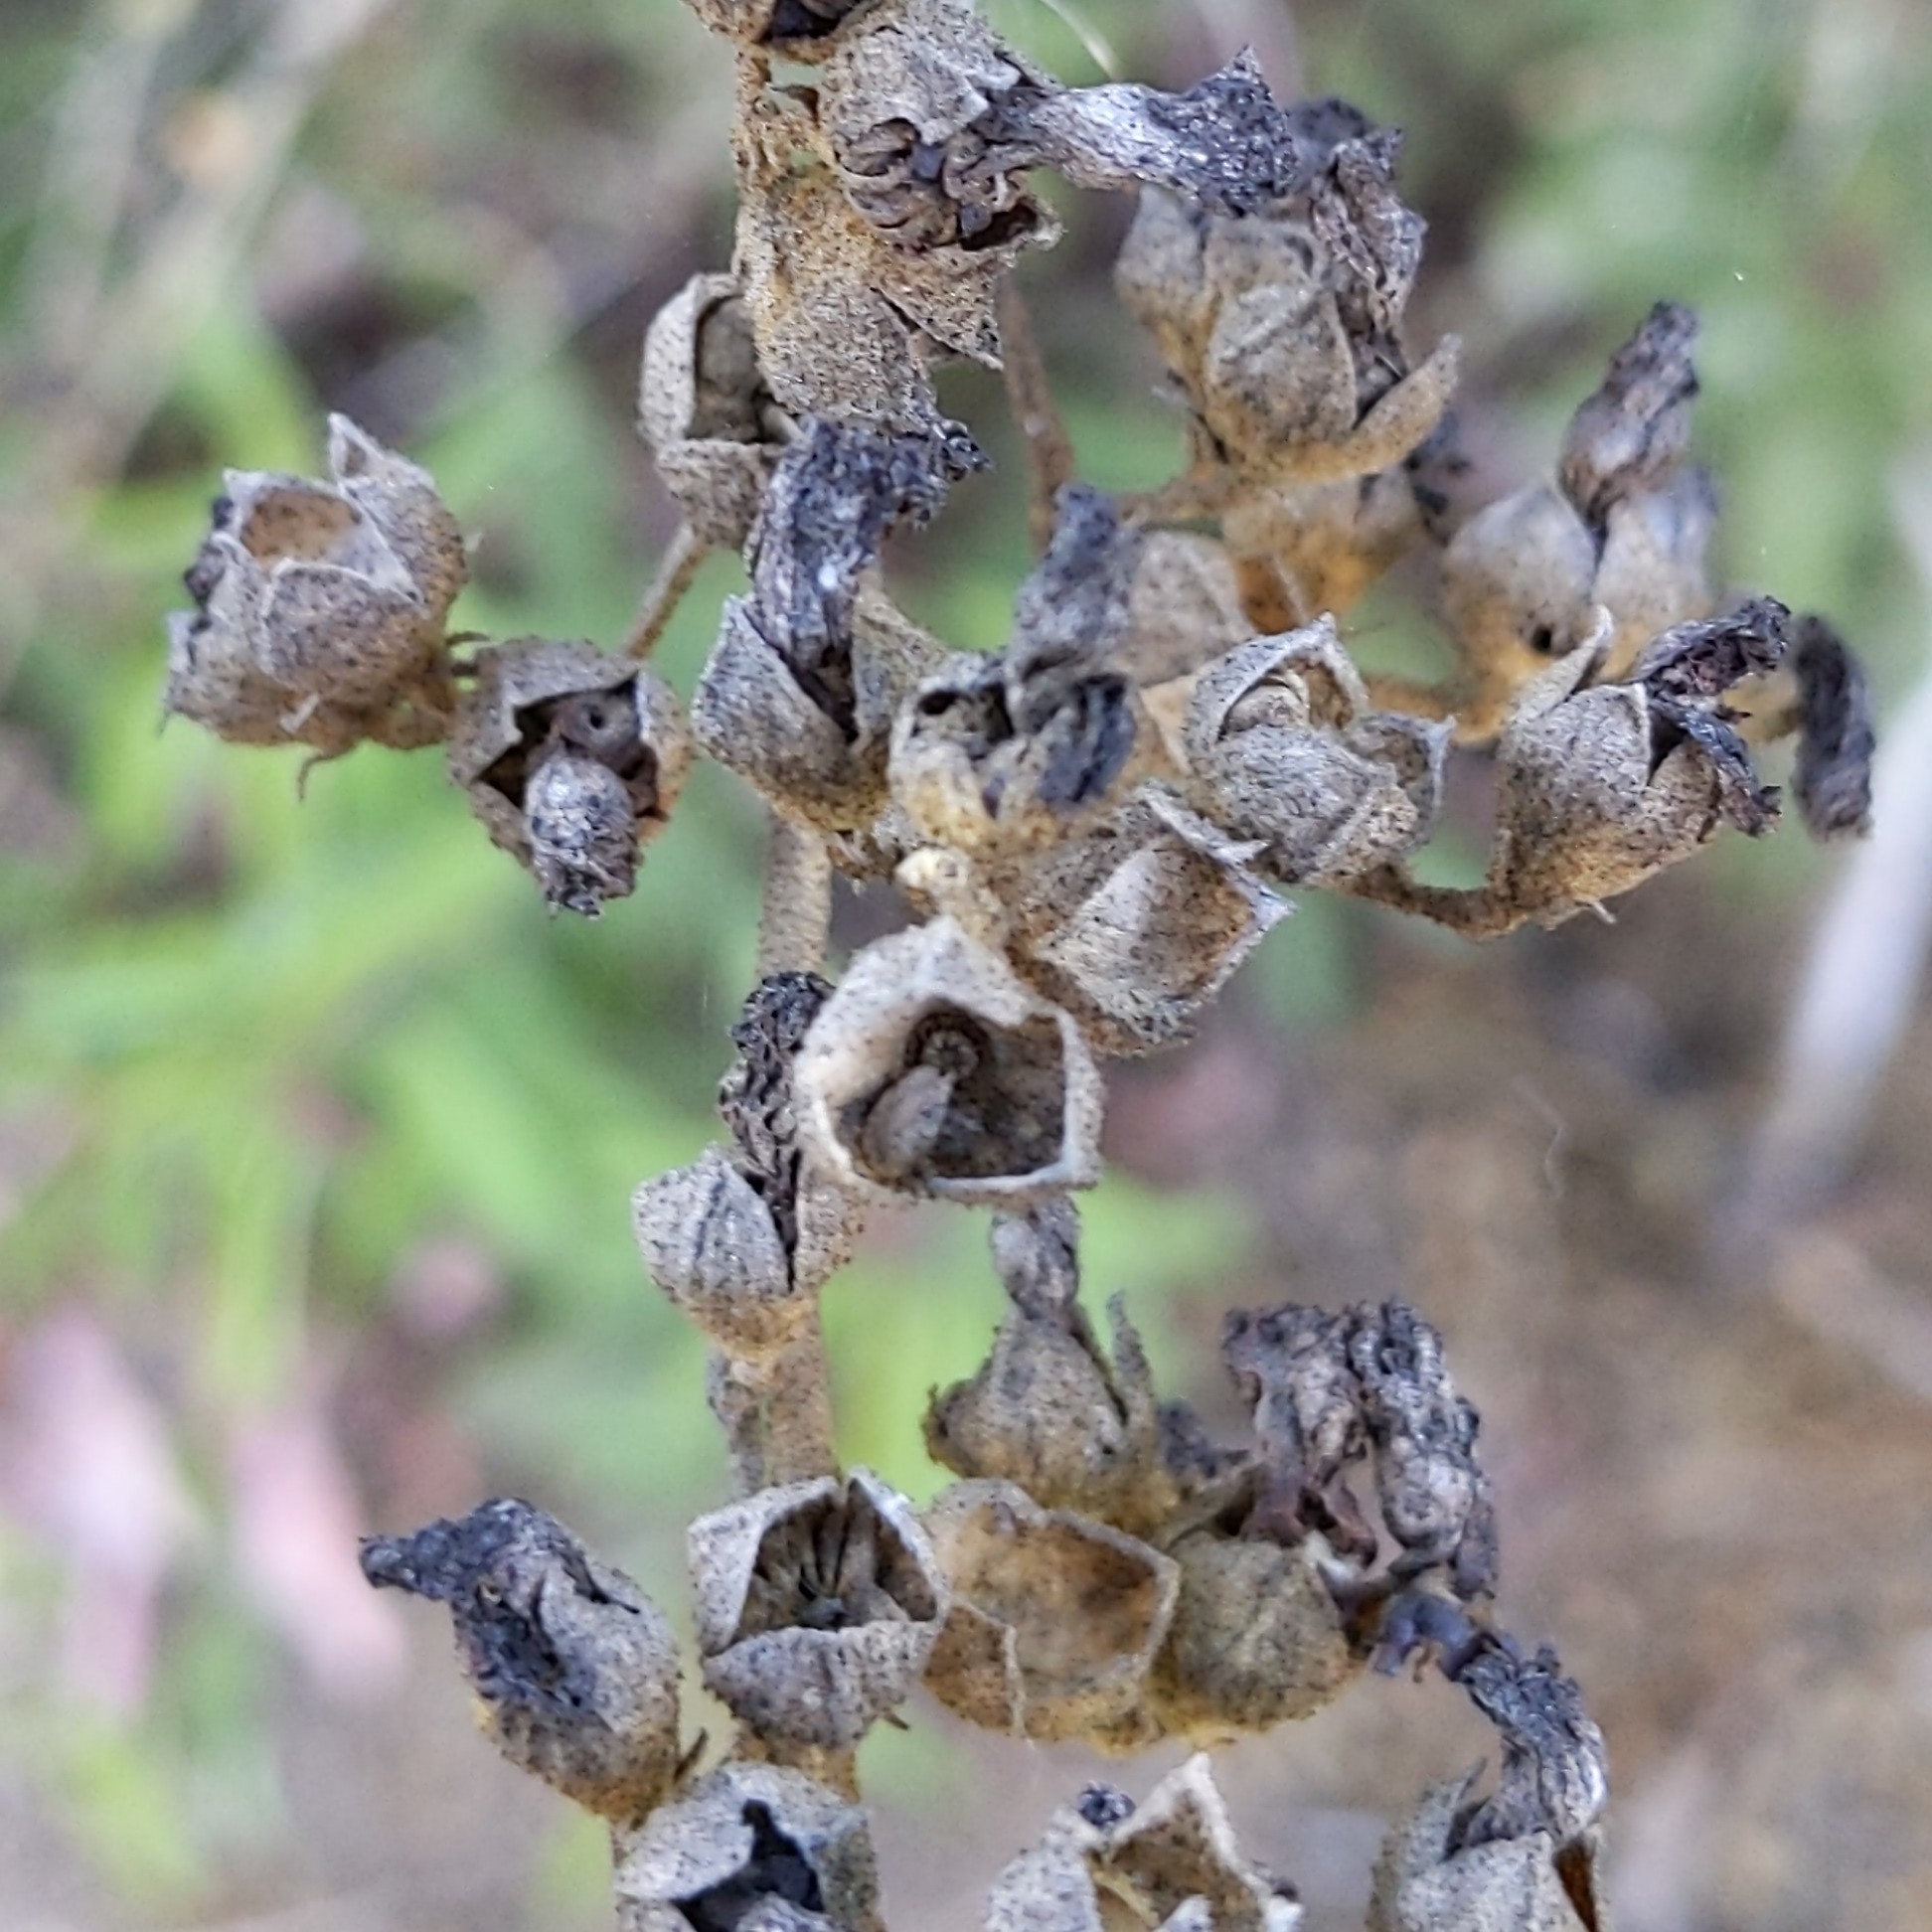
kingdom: Plantae
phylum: Tracheophyta
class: Magnoliopsida
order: Malvales
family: Malvaceae
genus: Malacothamnus
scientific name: Malacothamnus fasciculatus
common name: Sant cruz island bush-mallow
